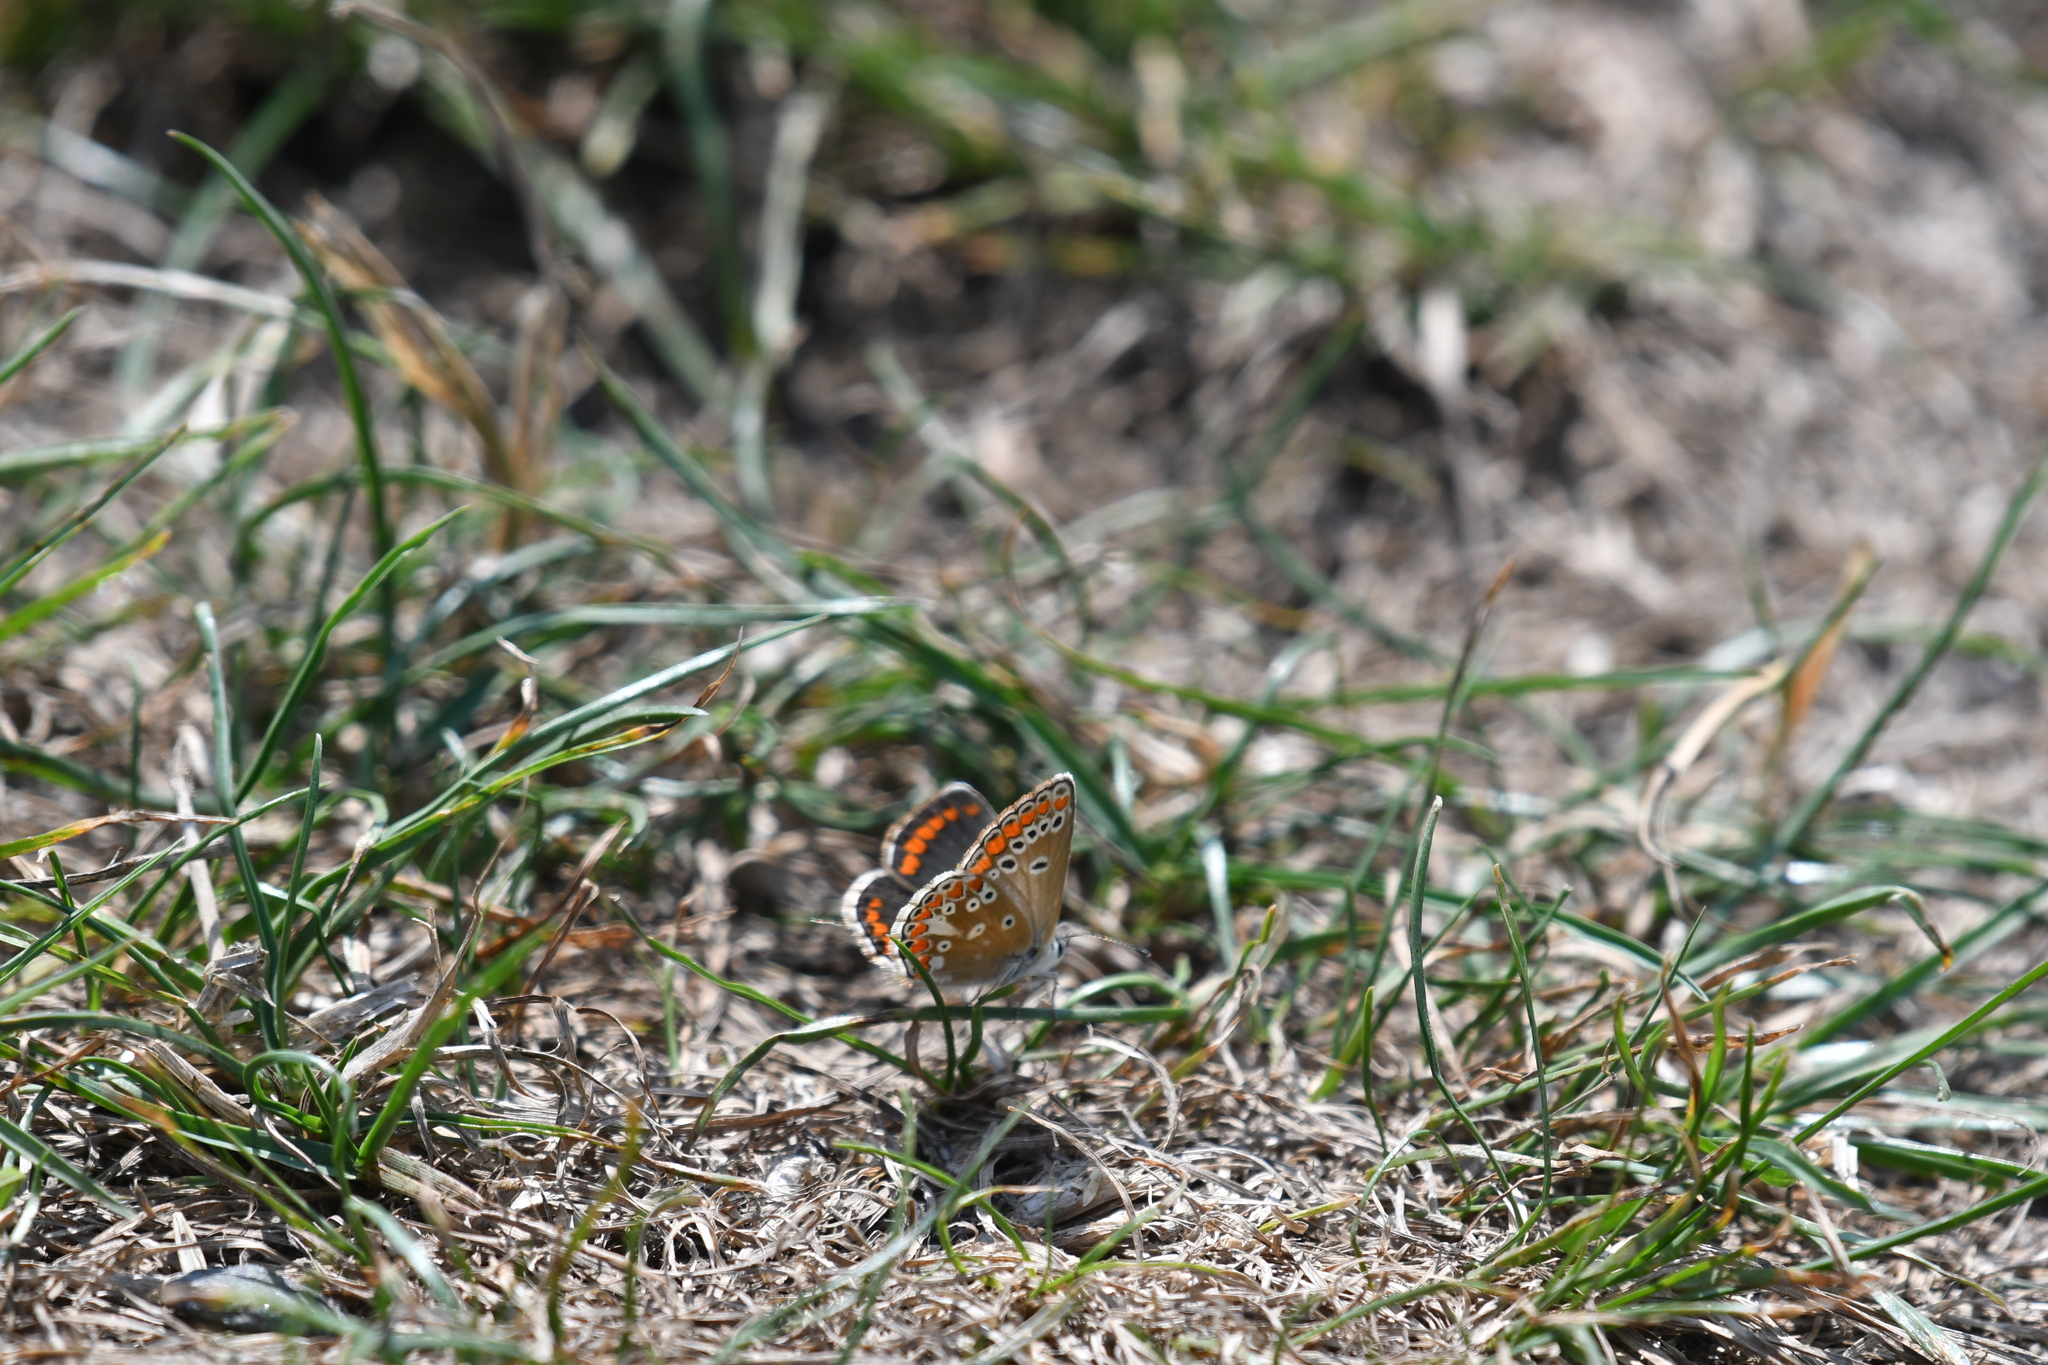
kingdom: Animalia
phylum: Arthropoda
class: Insecta
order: Lepidoptera
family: Lycaenidae
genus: Aricia
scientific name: Aricia agestis
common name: Brown argus
